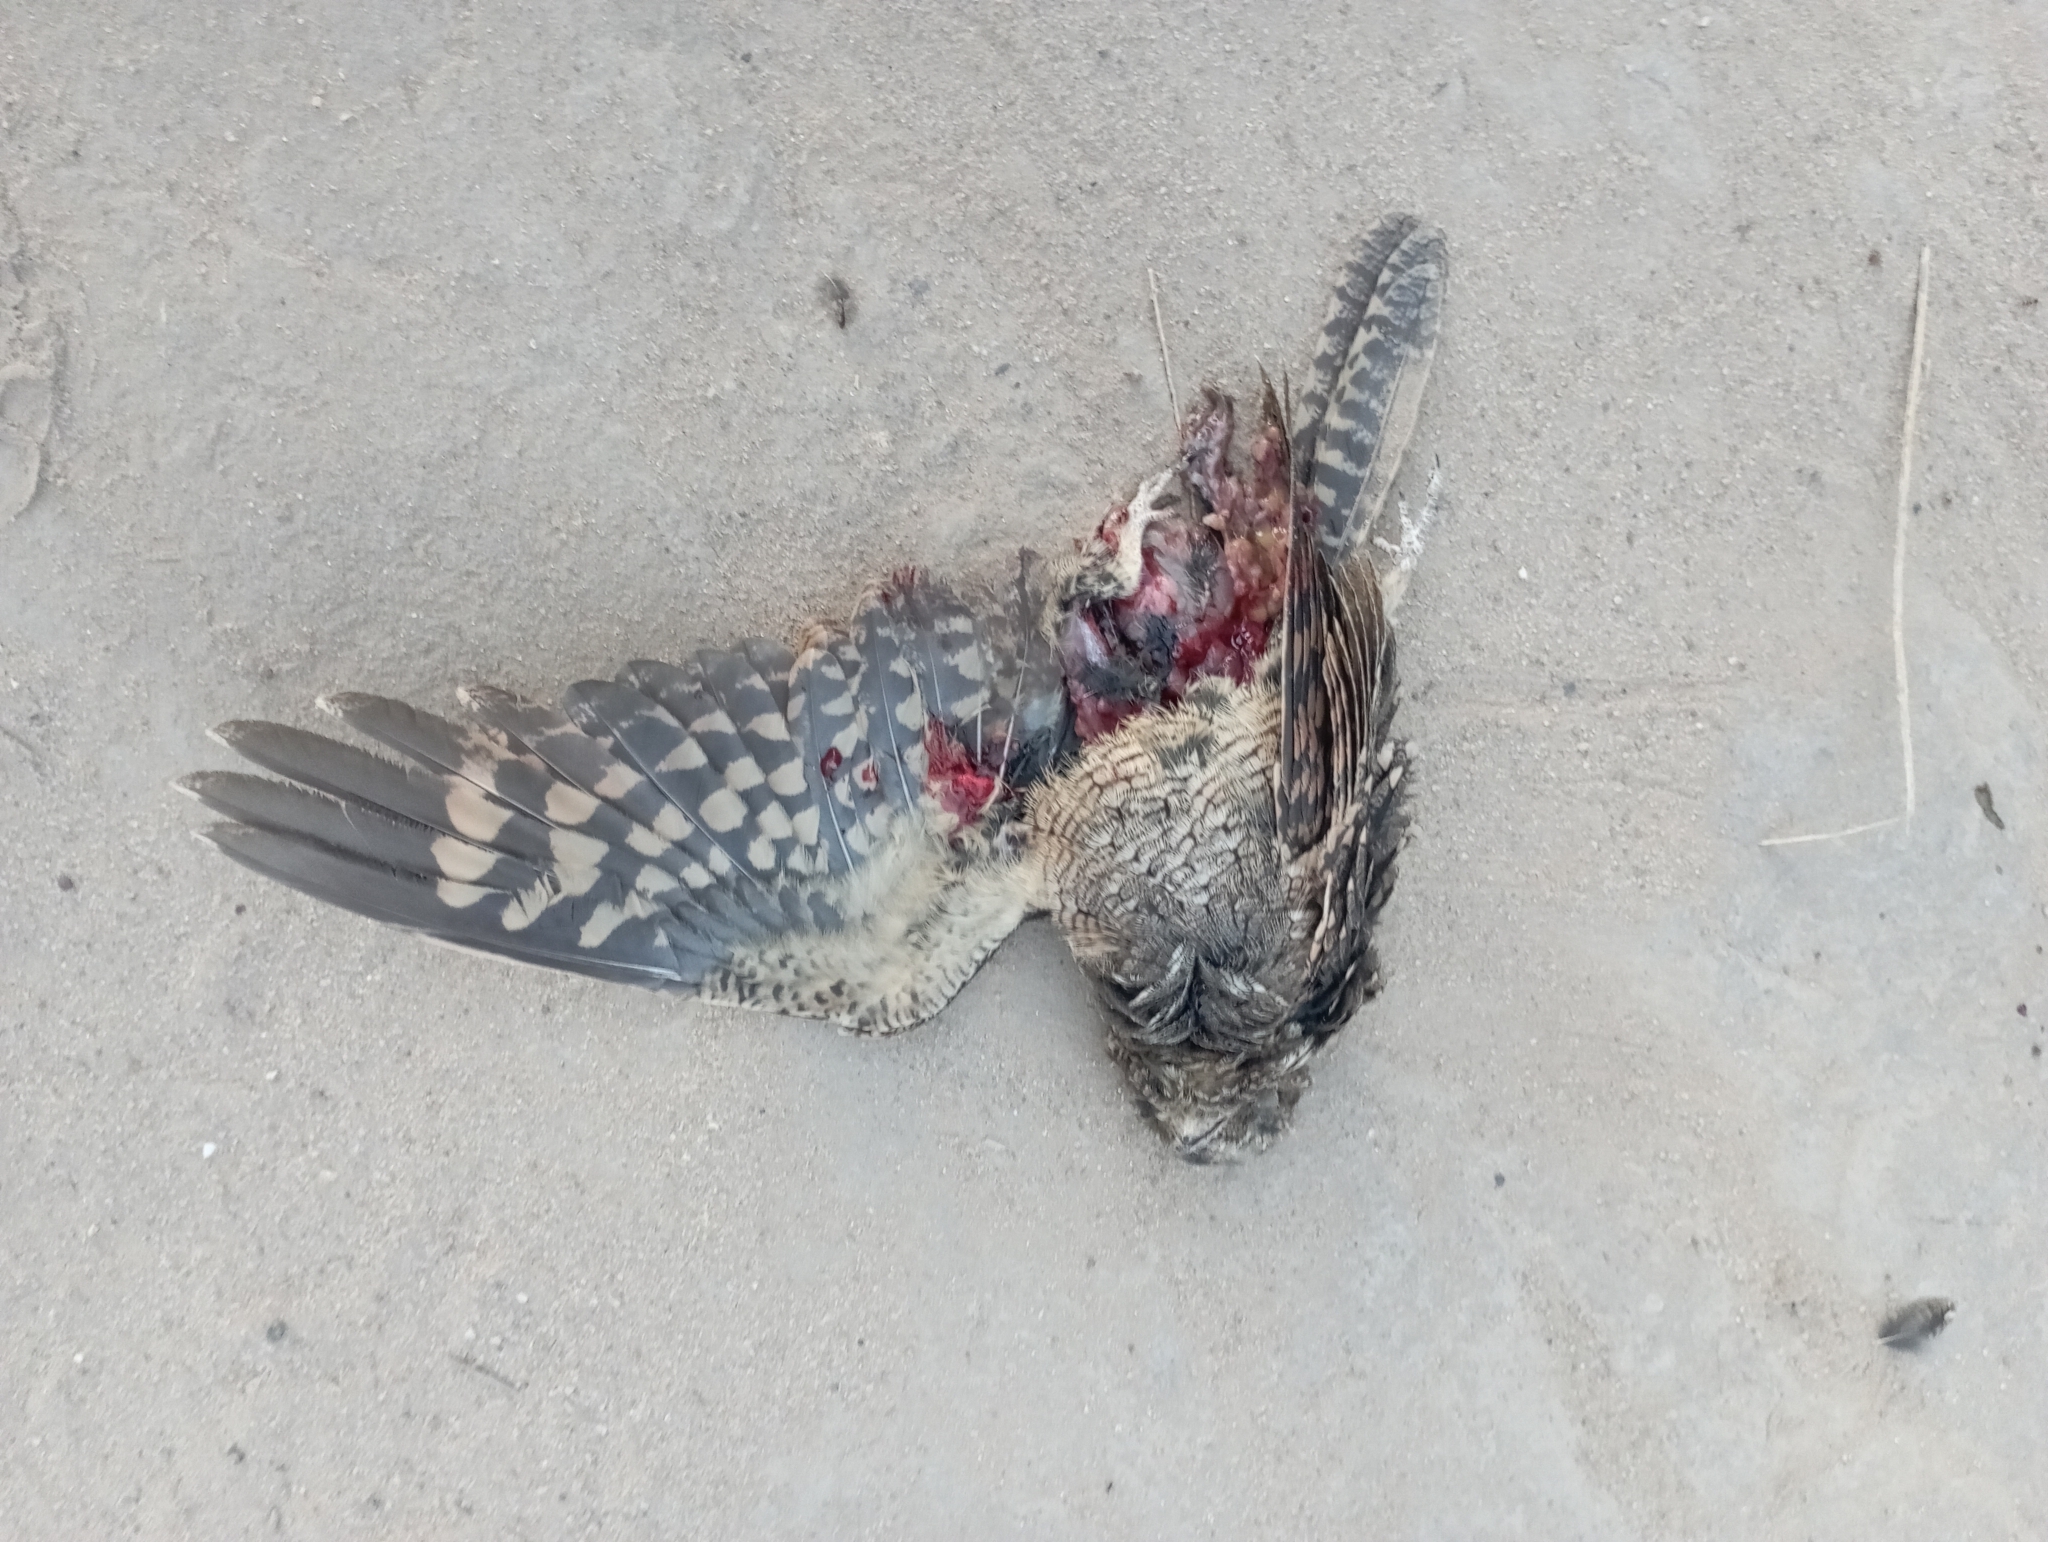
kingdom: Animalia
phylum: Chordata
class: Aves
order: Caprimulgiformes
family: Caprimulgidae
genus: Setopagis
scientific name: Setopagis parvula
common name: Little nightjar
